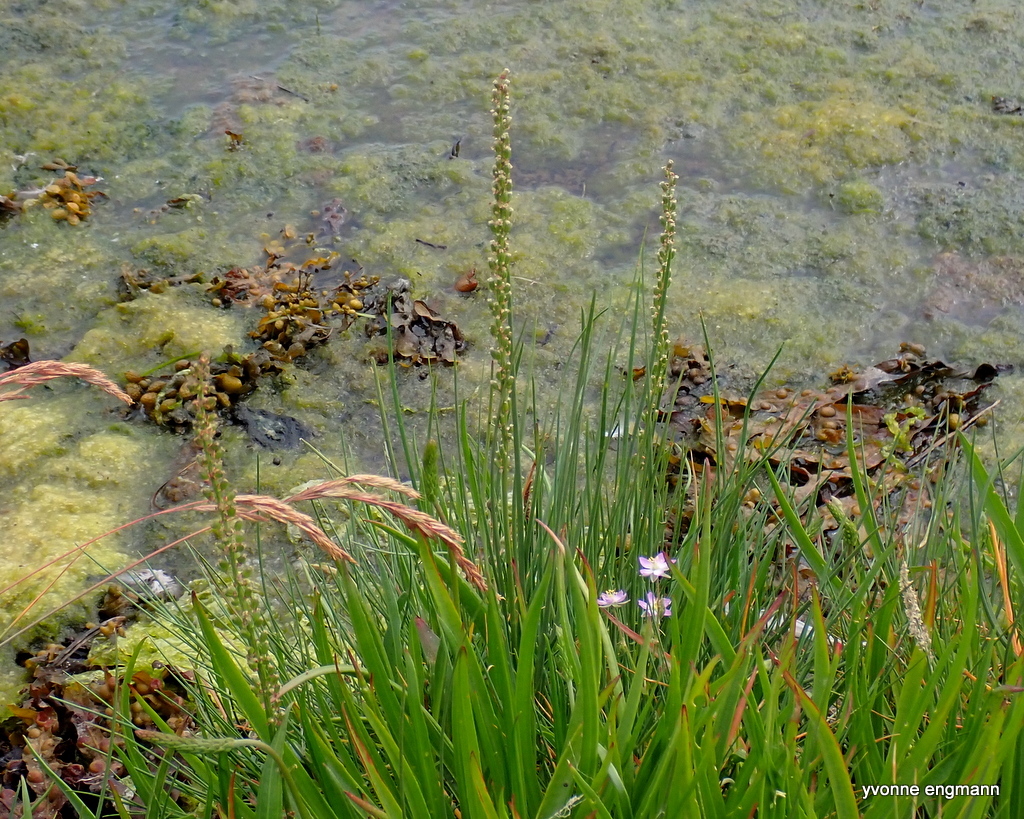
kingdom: Plantae
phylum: Tracheophyta
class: Liliopsida
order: Alismatales
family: Juncaginaceae
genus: Triglochin
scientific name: Triglochin maritima
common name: Sea arrowgrass
